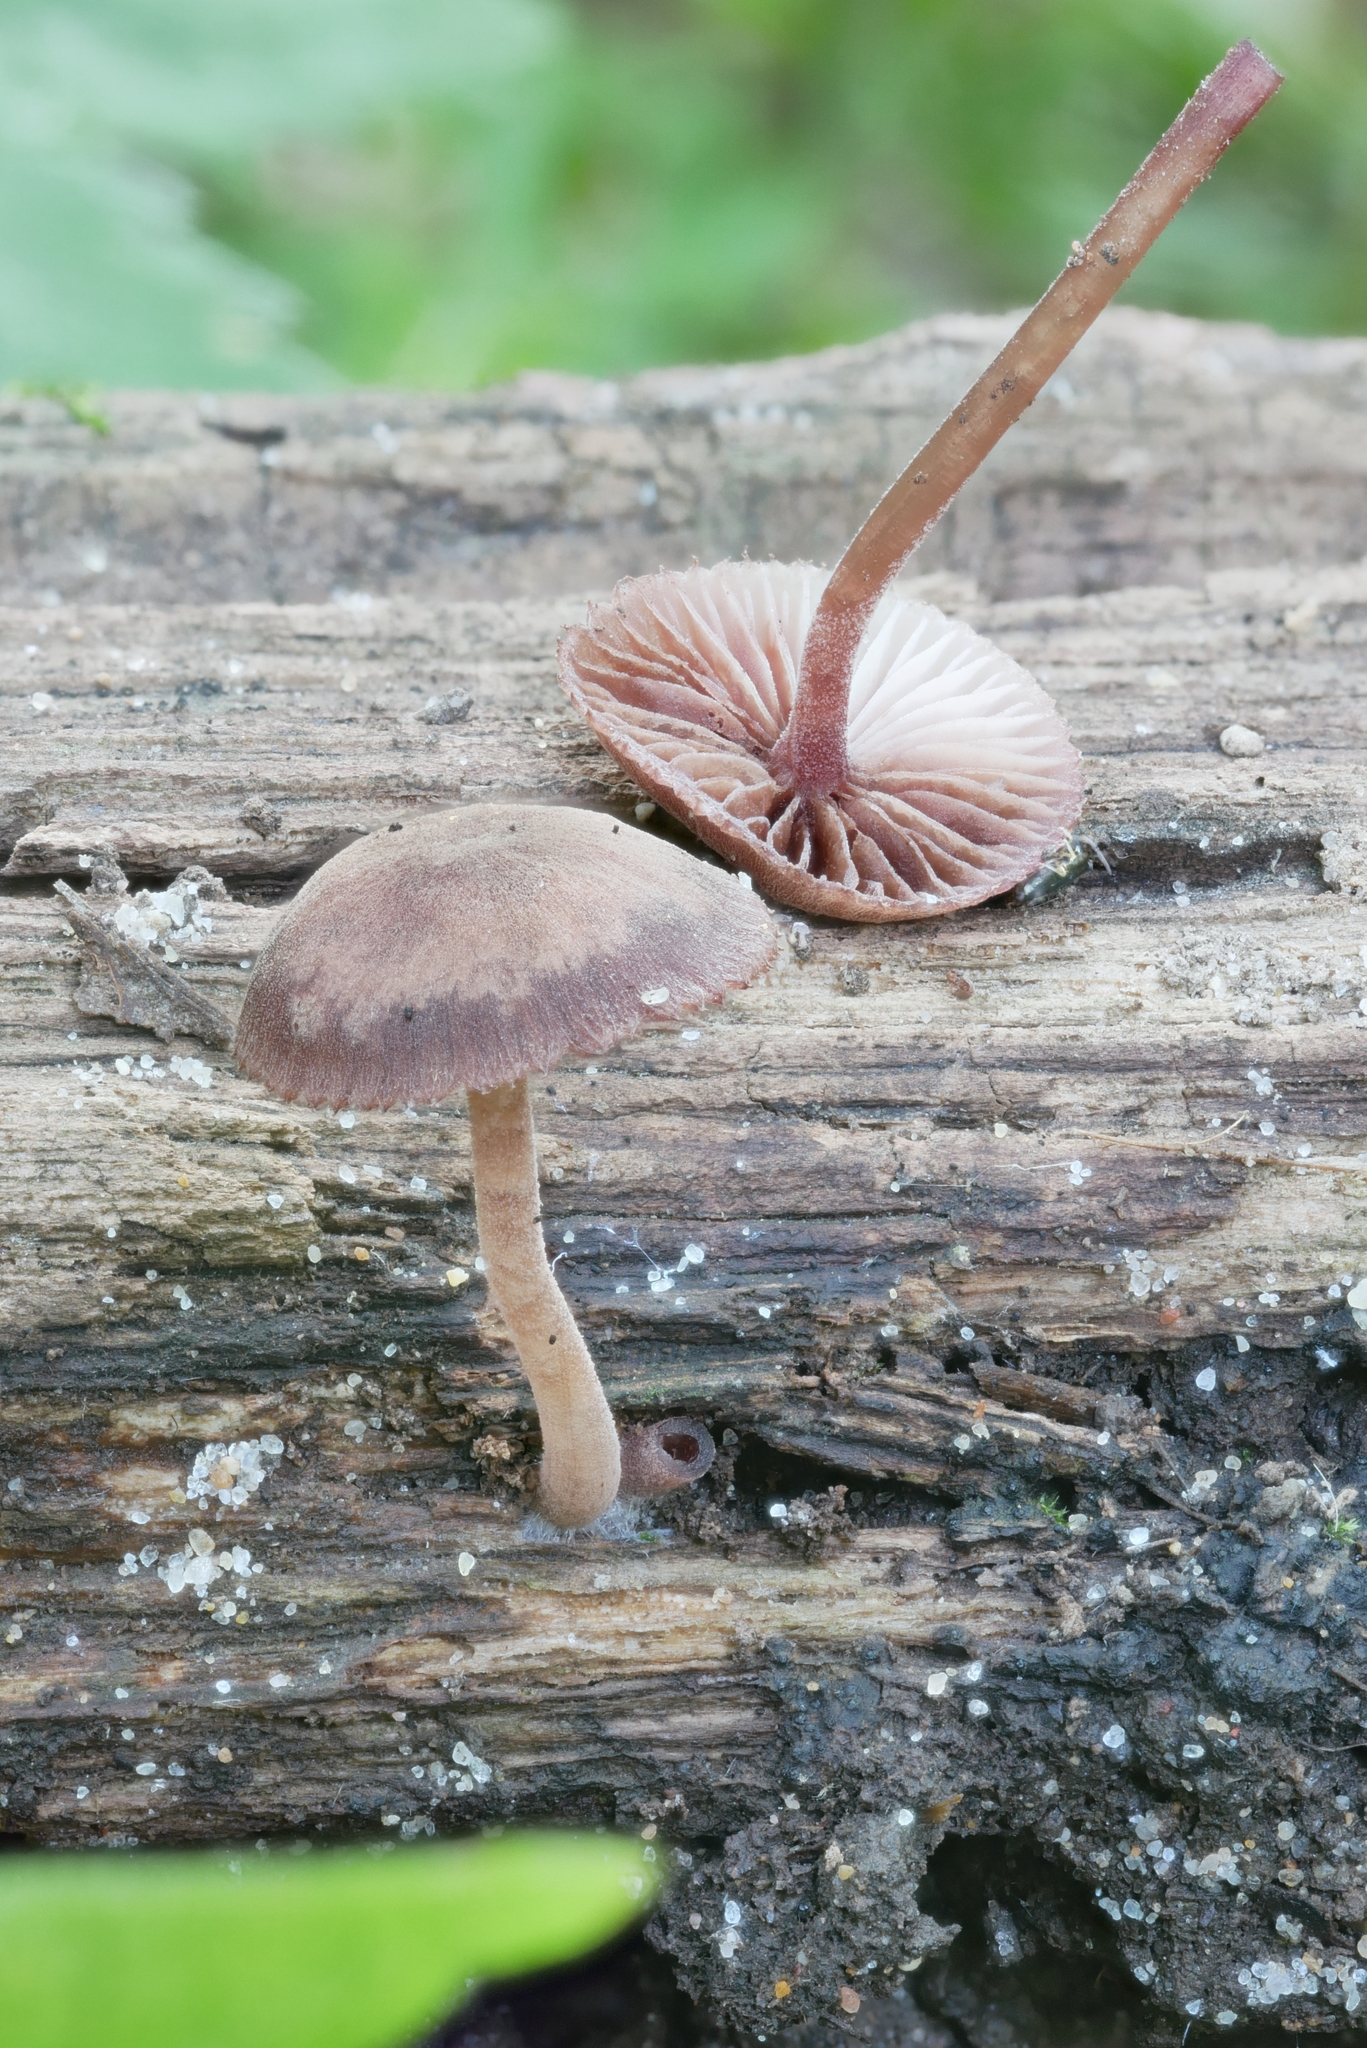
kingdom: Fungi
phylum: Basidiomycota
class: Agaricomycetes
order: Agaricales
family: Mycenaceae
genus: Mycena
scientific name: Mycena haematopus
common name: Burgundydrop bonnet
